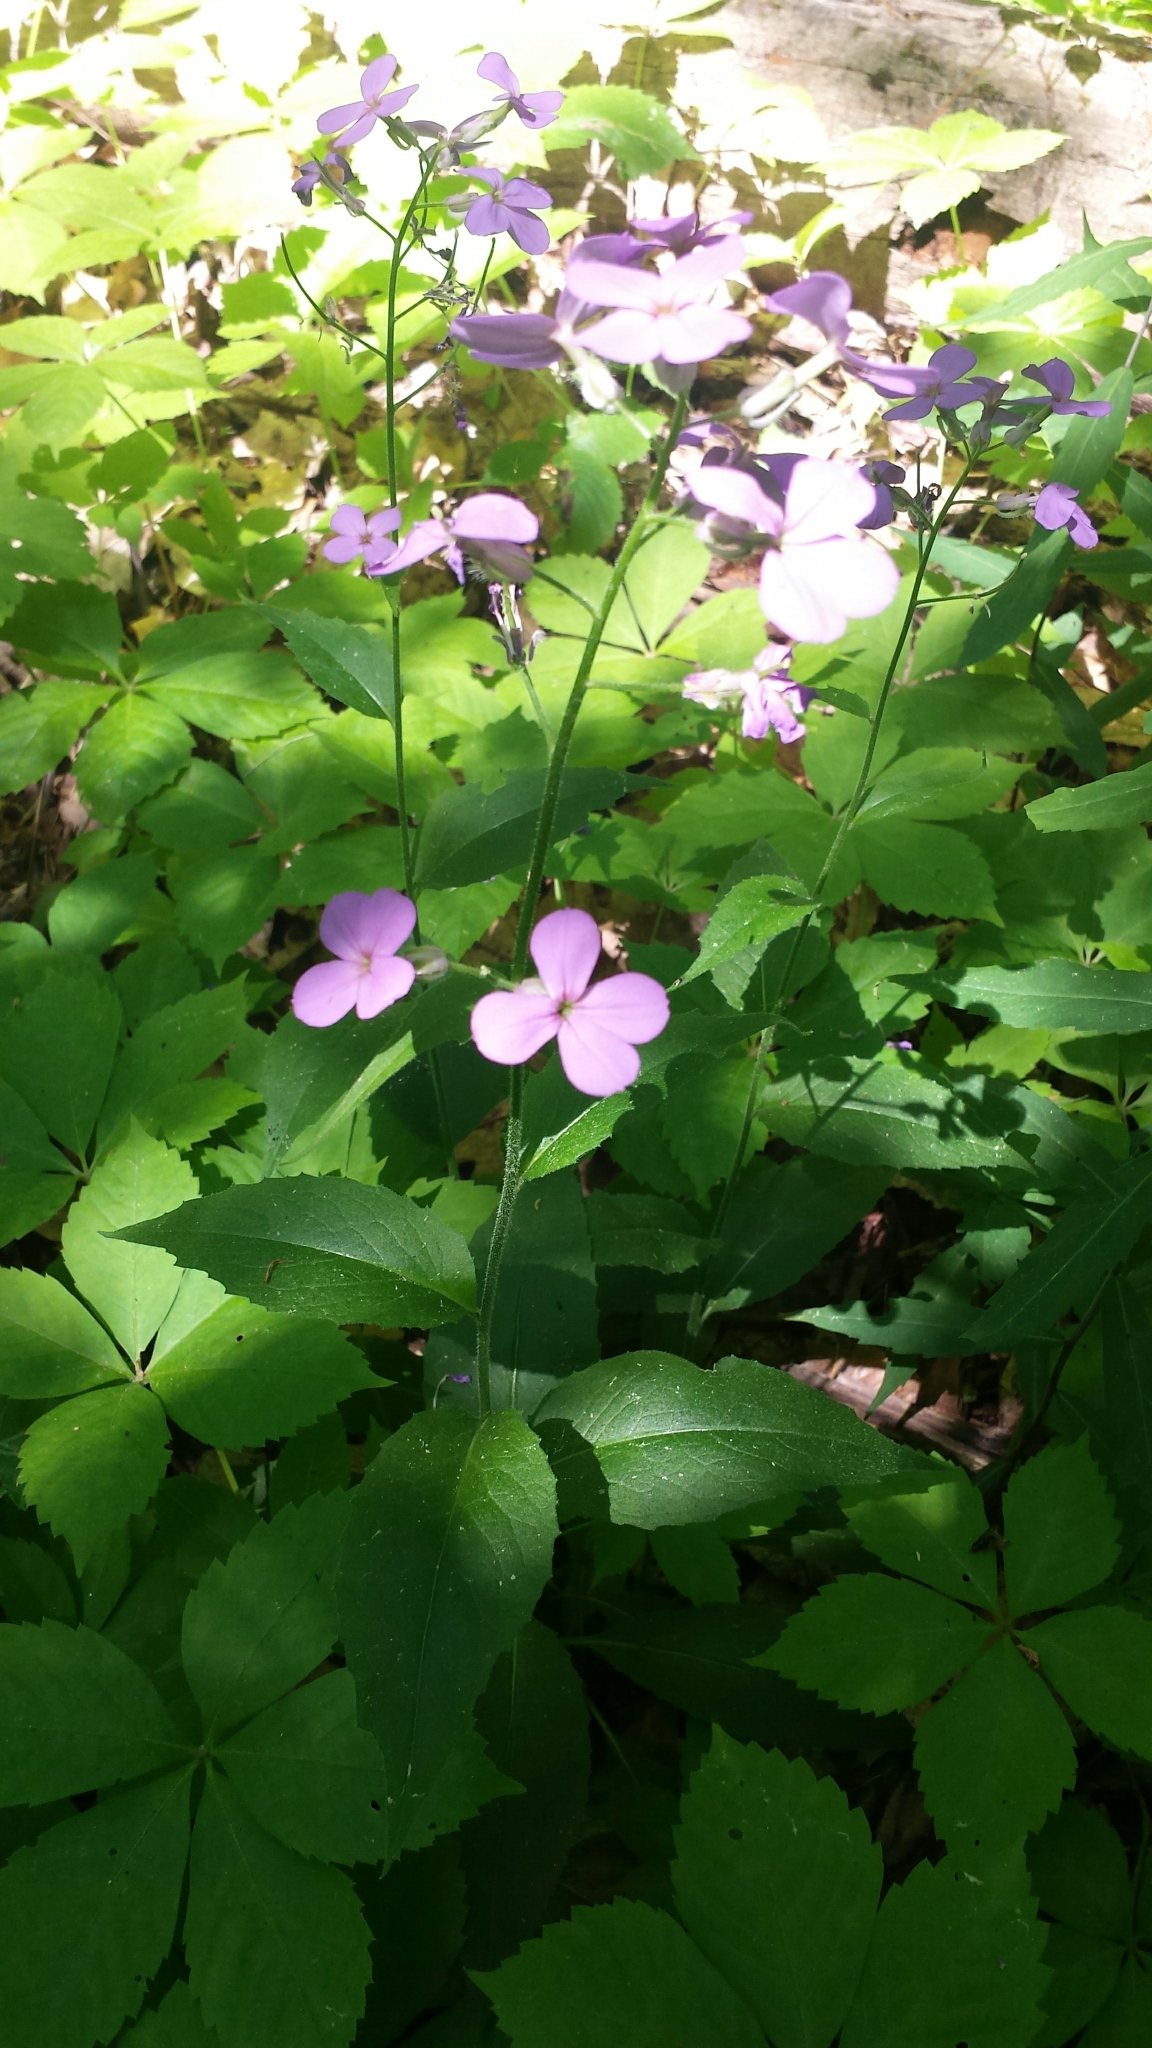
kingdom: Plantae
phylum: Tracheophyta
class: Magnoliopsida
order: Brassicales
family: Brassicaceae
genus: Hesperis
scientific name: Hesperis matronalis
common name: Dame's-violet
